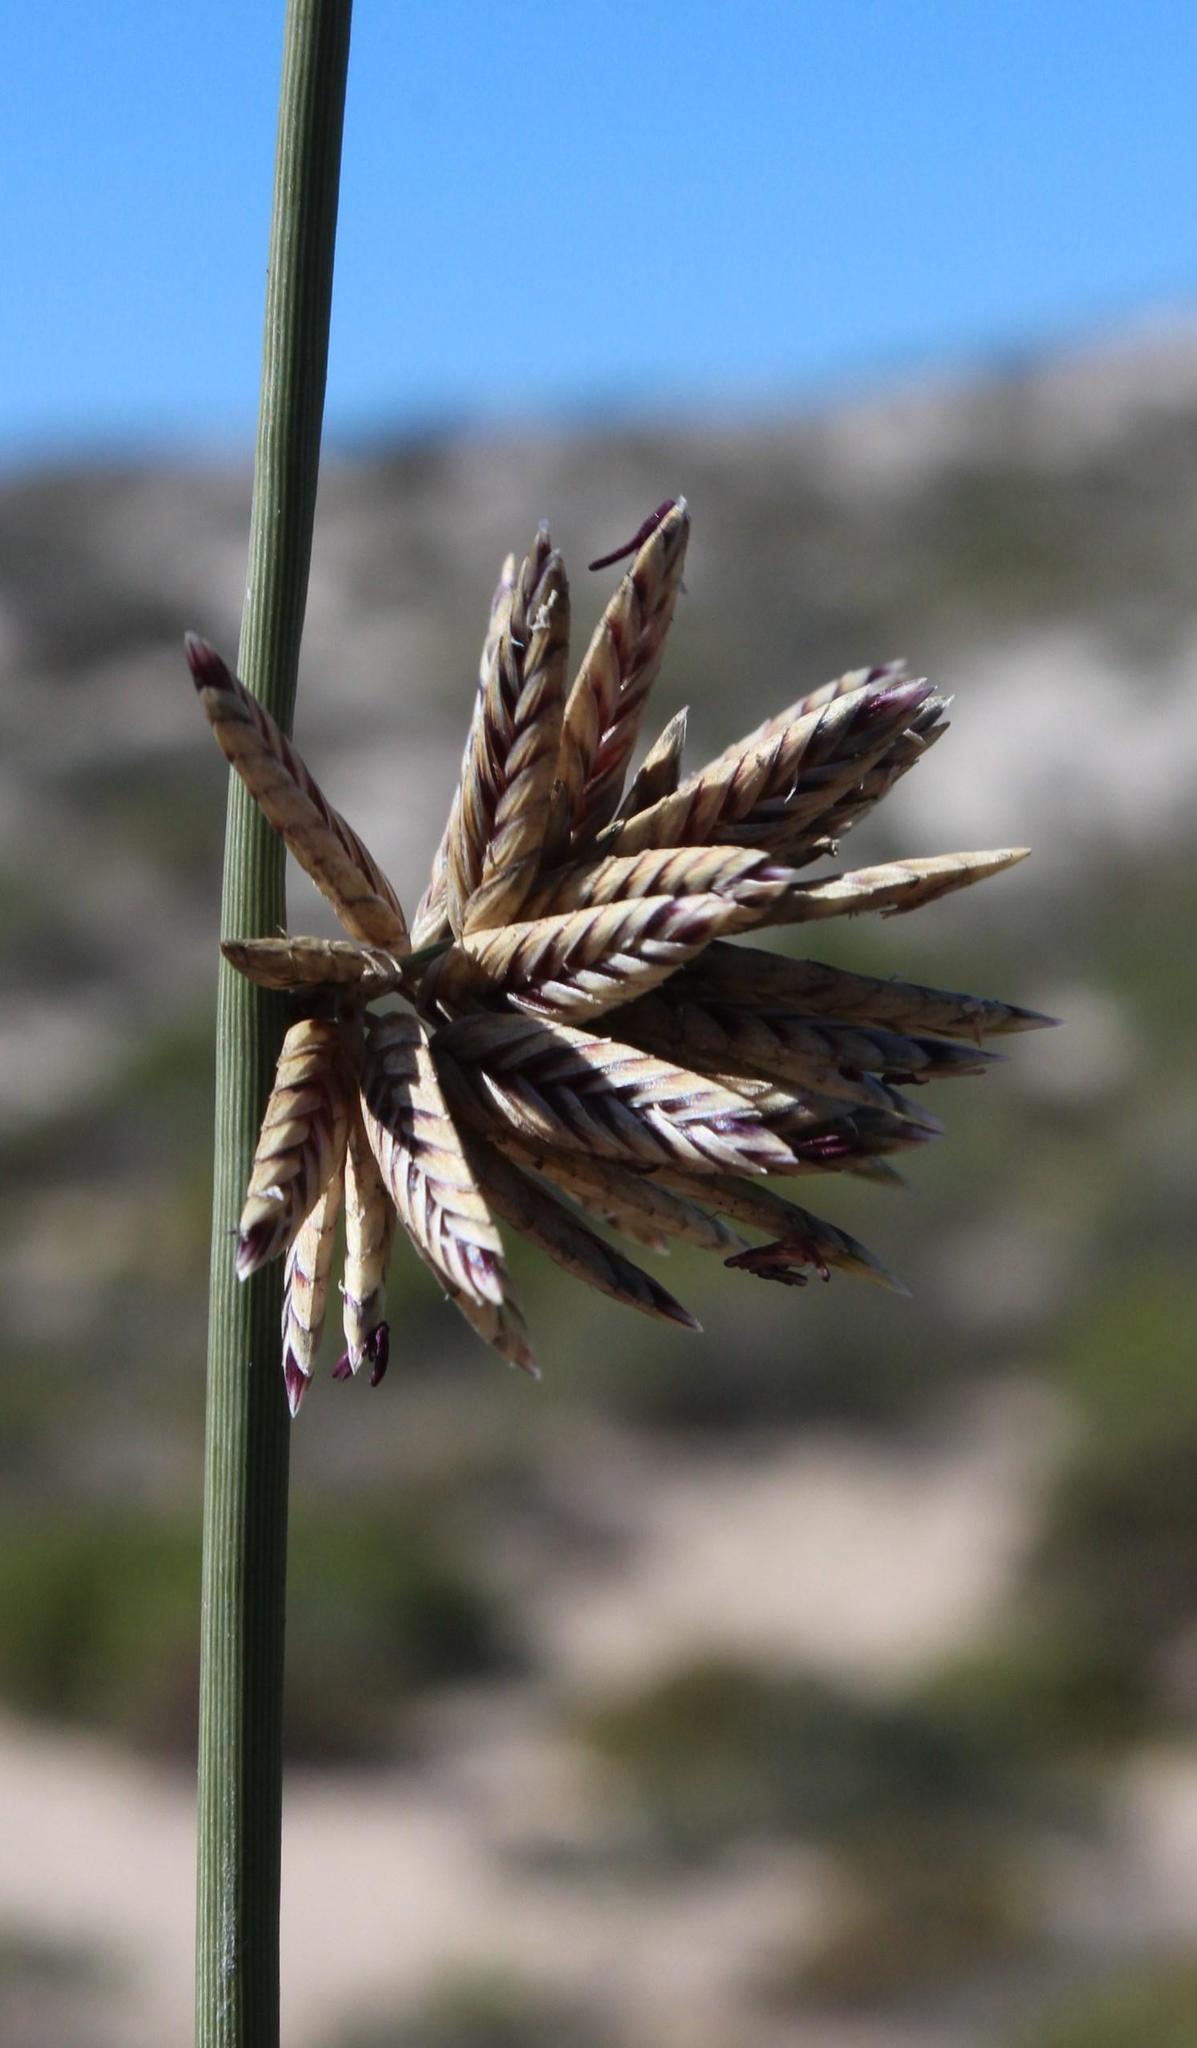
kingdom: Plantae
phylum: Tracheophyta
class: Liliopsida
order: Poales
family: Poaceae
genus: Cladoraphis
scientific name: Cladoraphis cyperoides
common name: Bristly lovegrass
